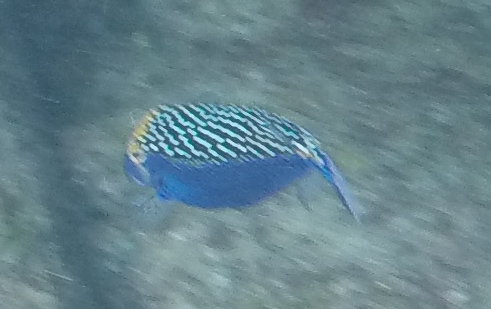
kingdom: Animalia
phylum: Chordata
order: Tetraodontiformes
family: Ostraciidae
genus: Ostracion
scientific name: Ostracion meleagris
